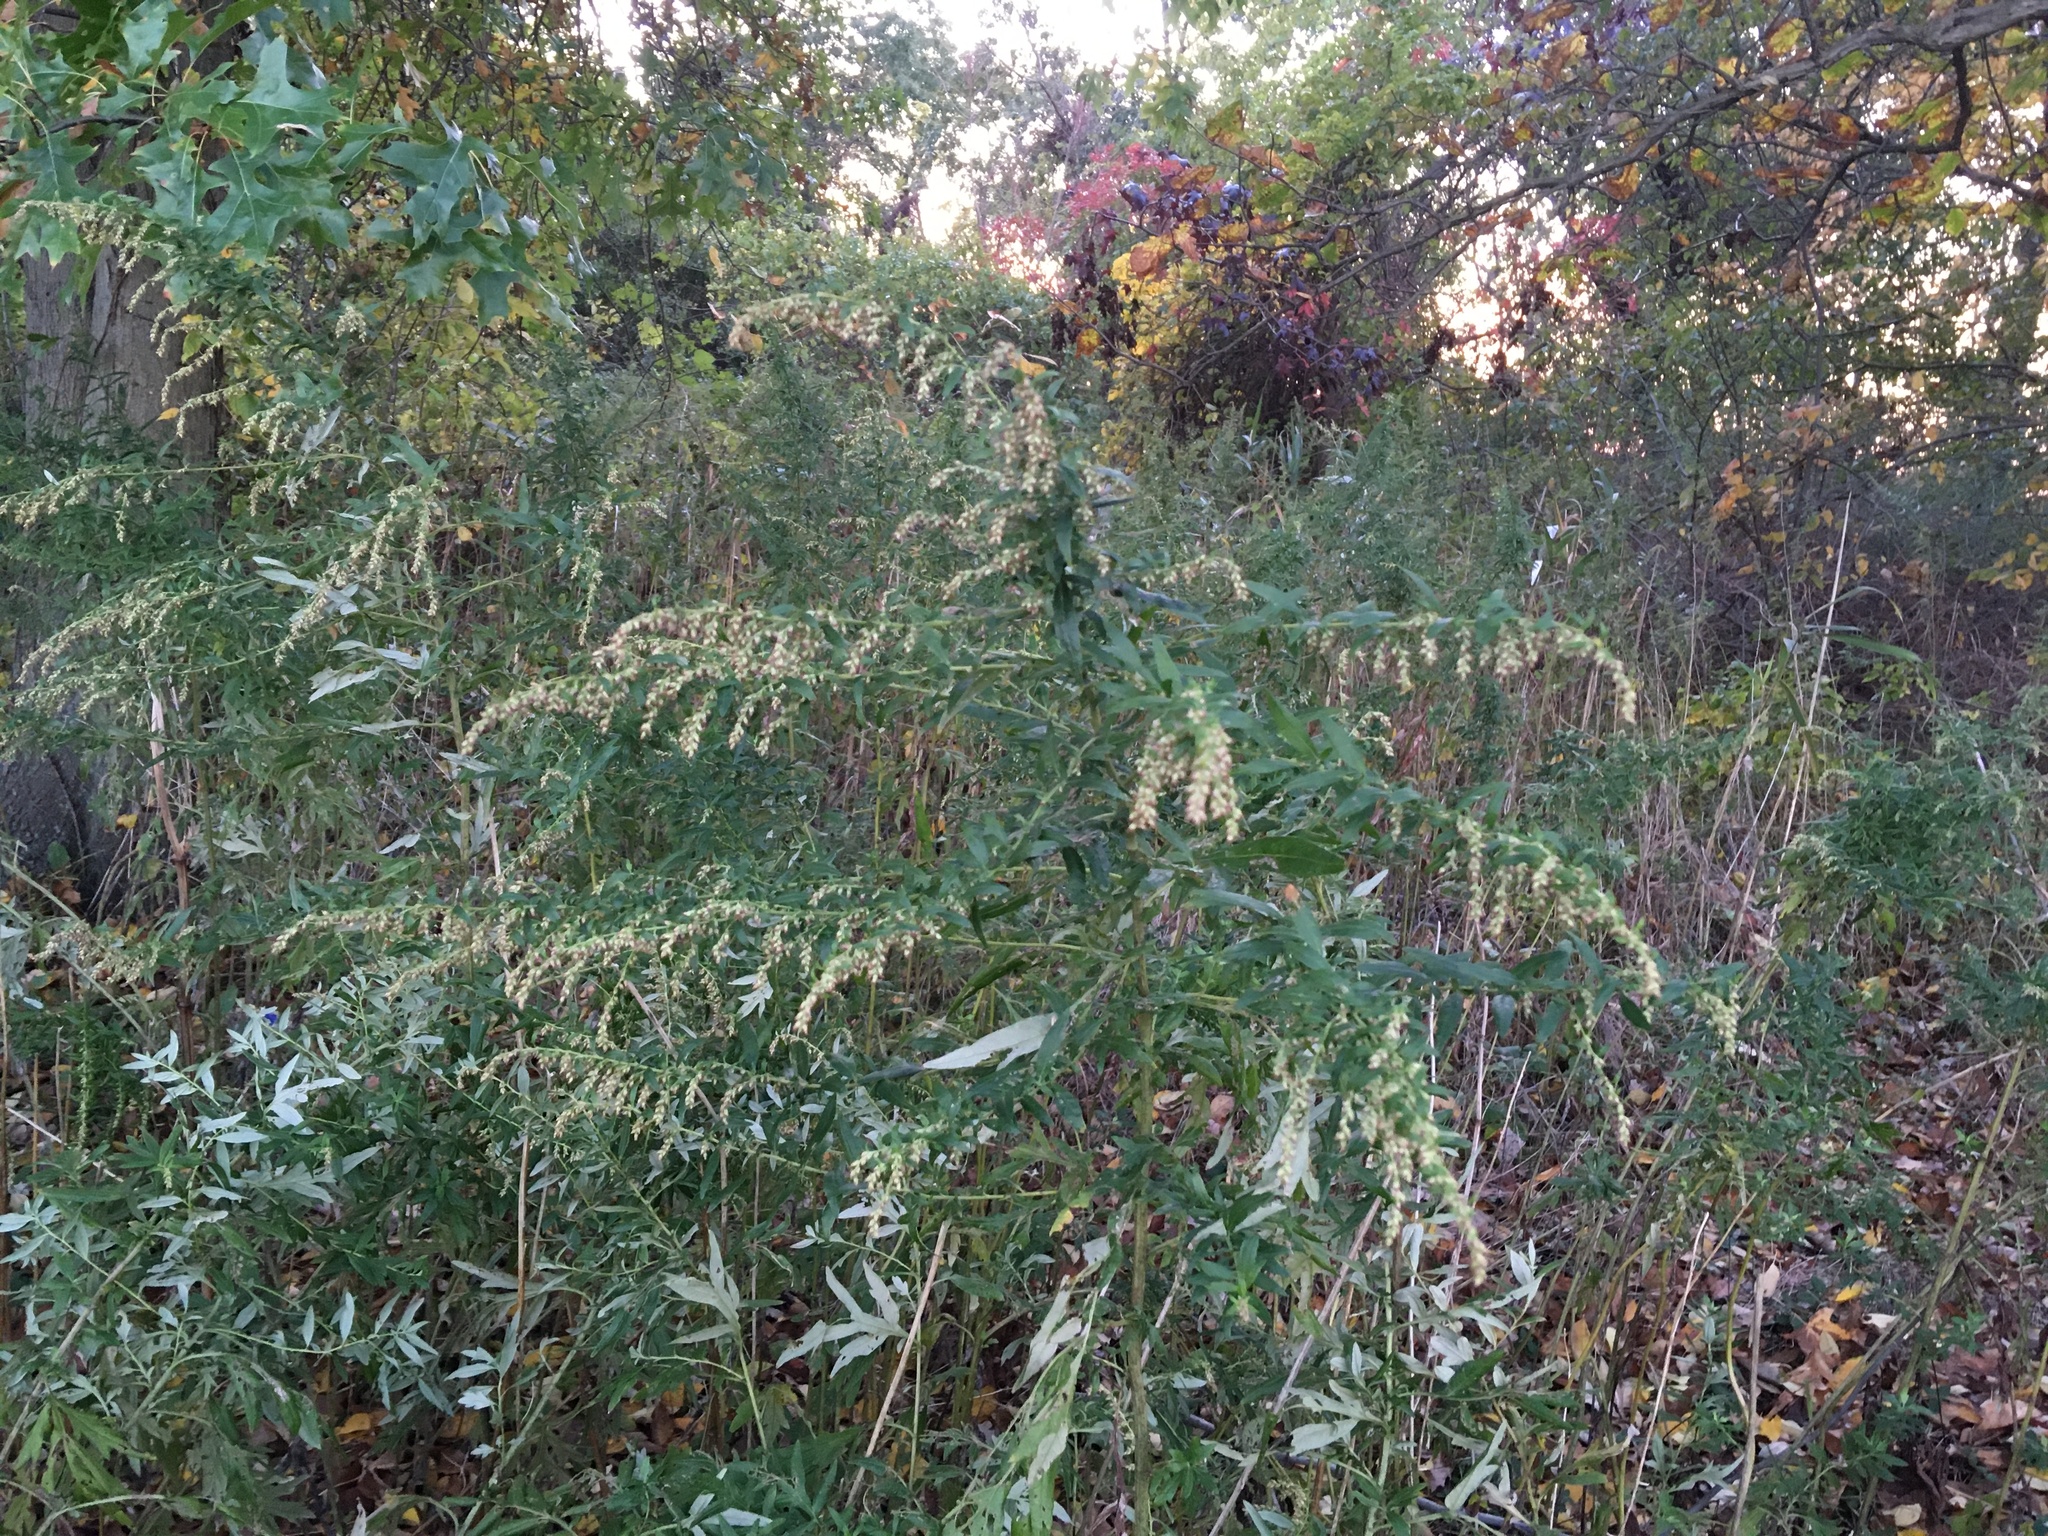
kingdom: Plantae
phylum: Tracheophyta
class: Magnoliopsida
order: Asterales
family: Asteraceae
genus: Artemisia
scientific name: Artemisia vulgaris
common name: Mugwort
